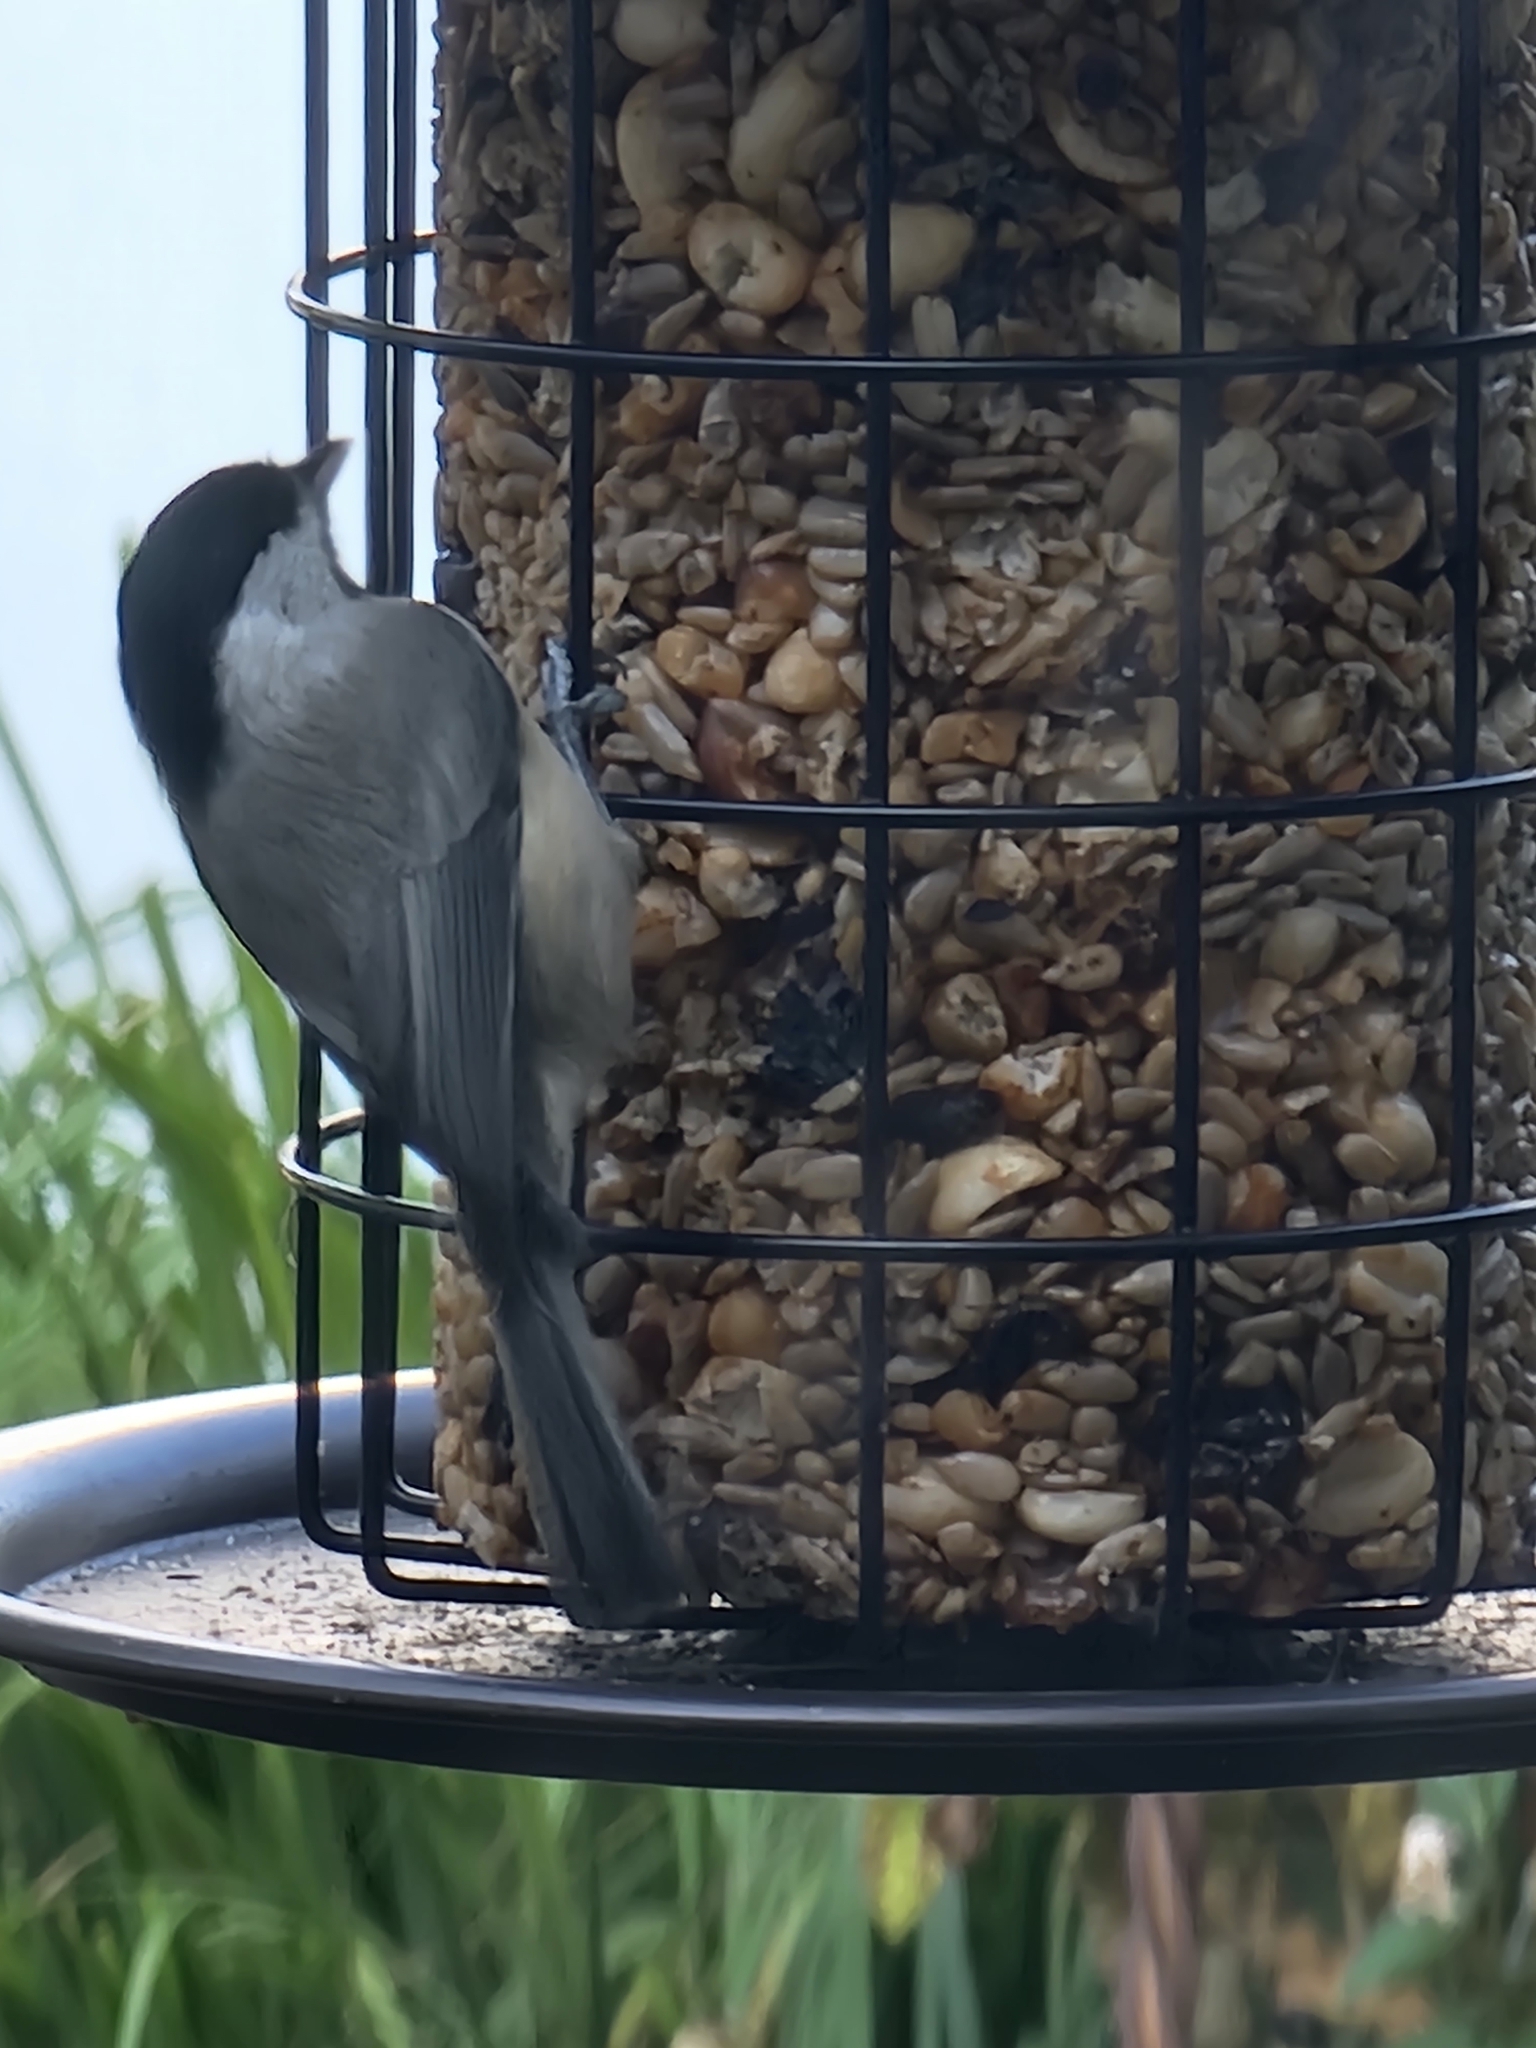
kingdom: Animalia
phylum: Chordata
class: Aves
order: Passeriformes
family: Paridae
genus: Poecile
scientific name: Poecile carolinensis
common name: Carolina chickadee
